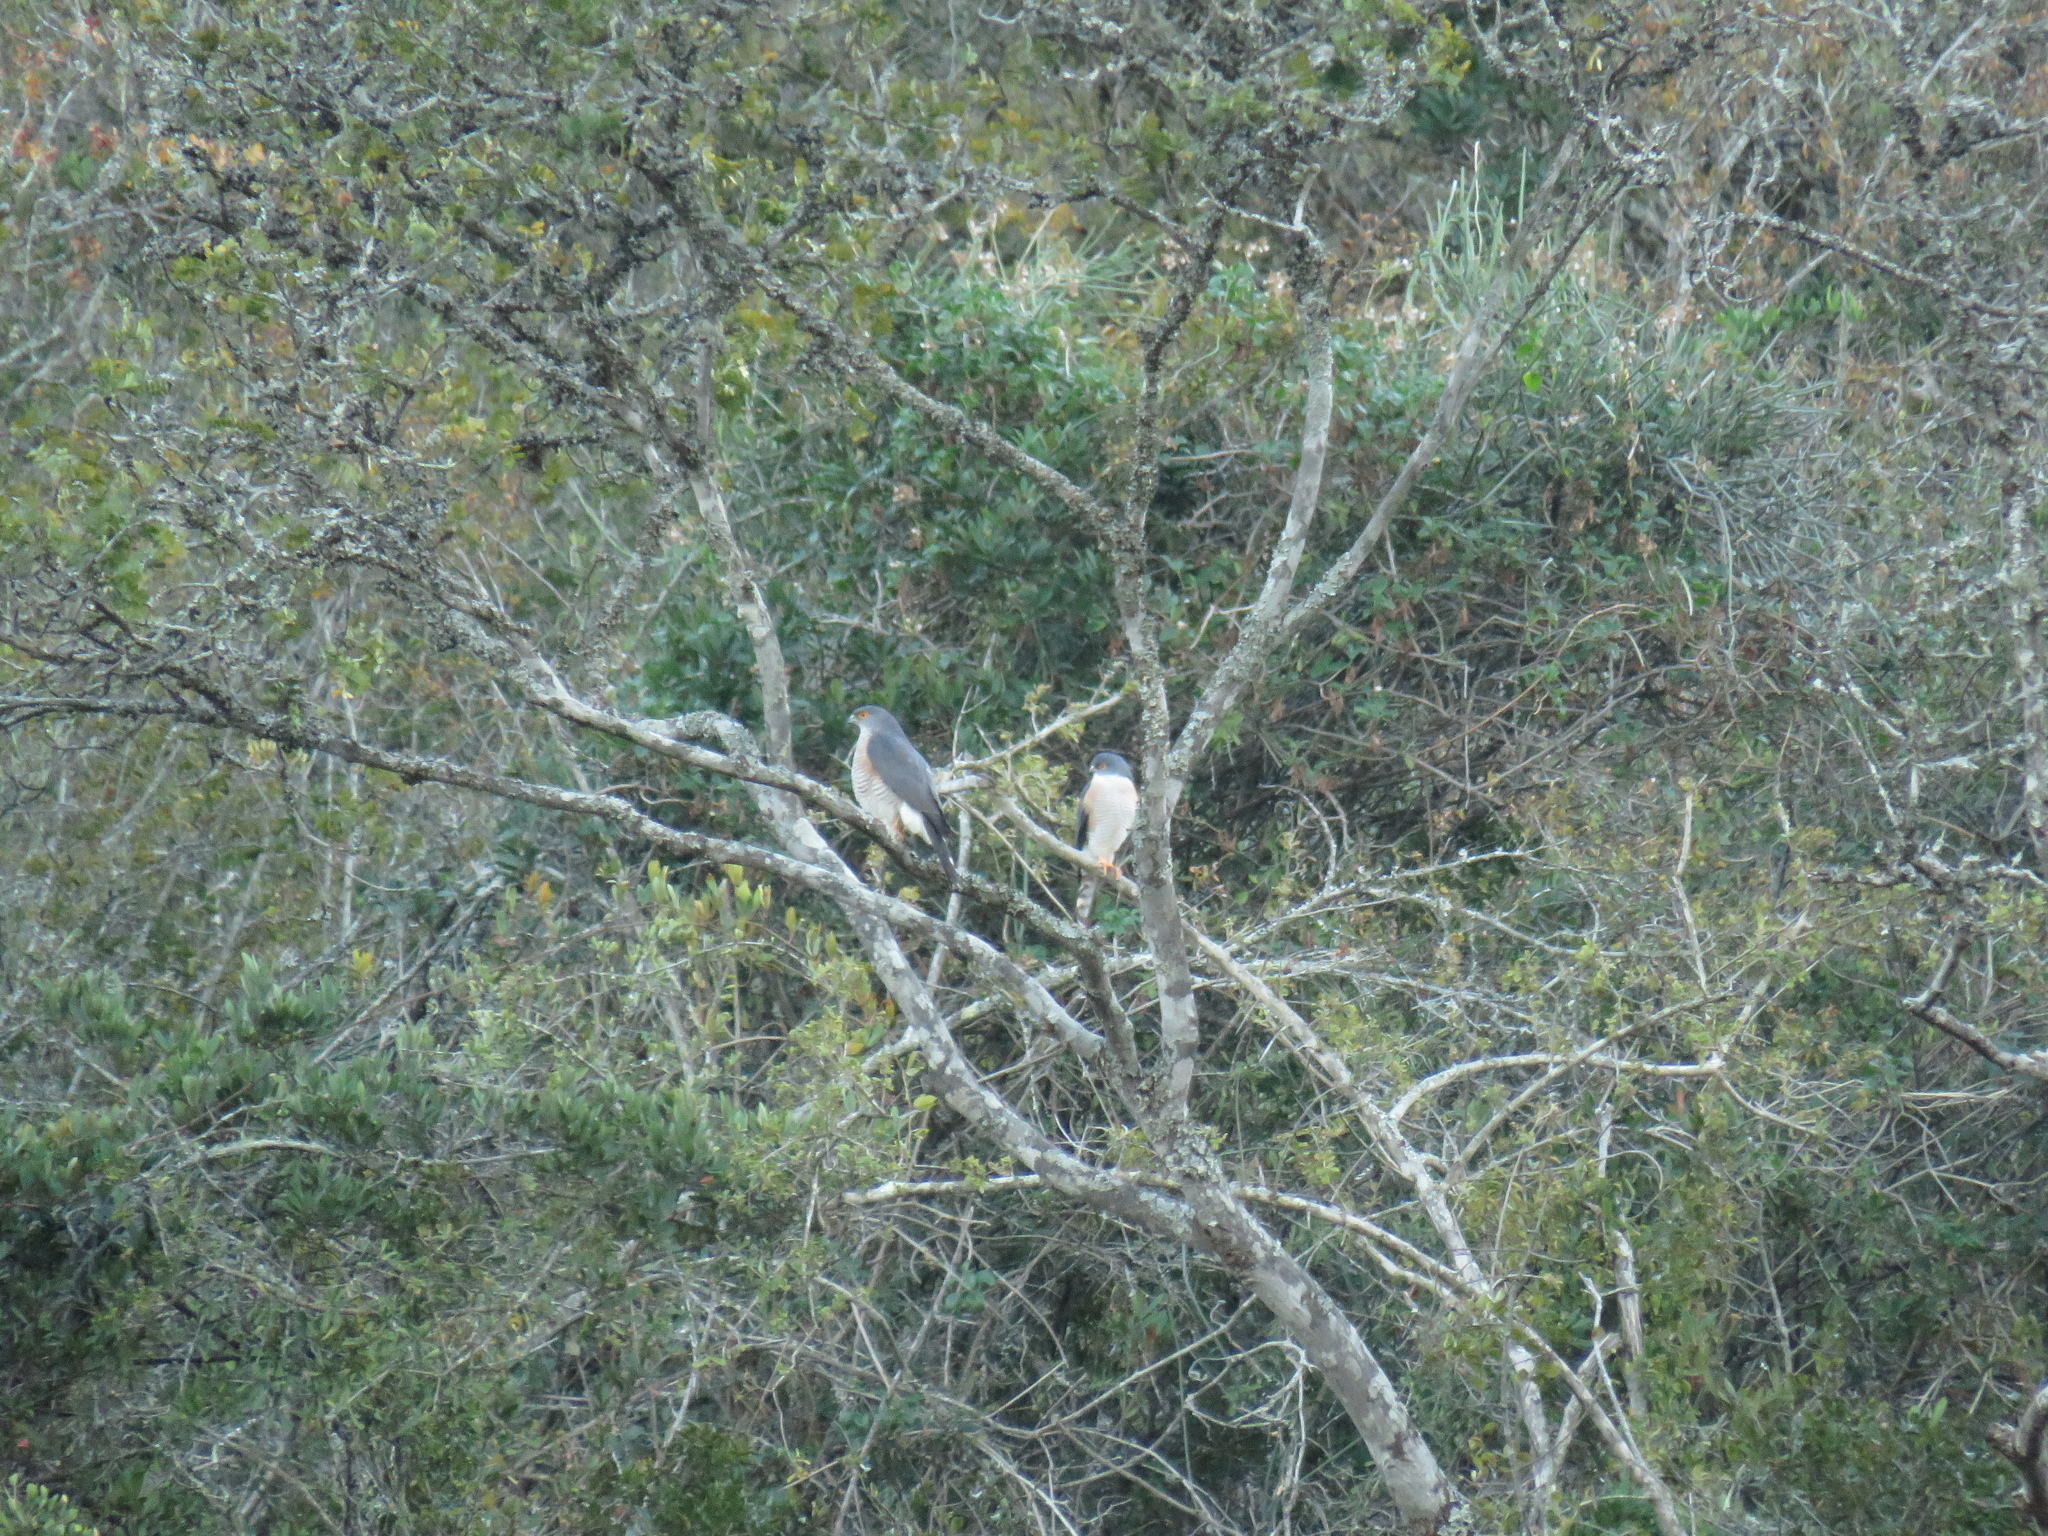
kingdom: Animalia
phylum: Chordata
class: Aves
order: Accipitriformes
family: Accipitridae
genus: Accipiter
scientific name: Accipiter minullus
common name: Little sparrowhawk
